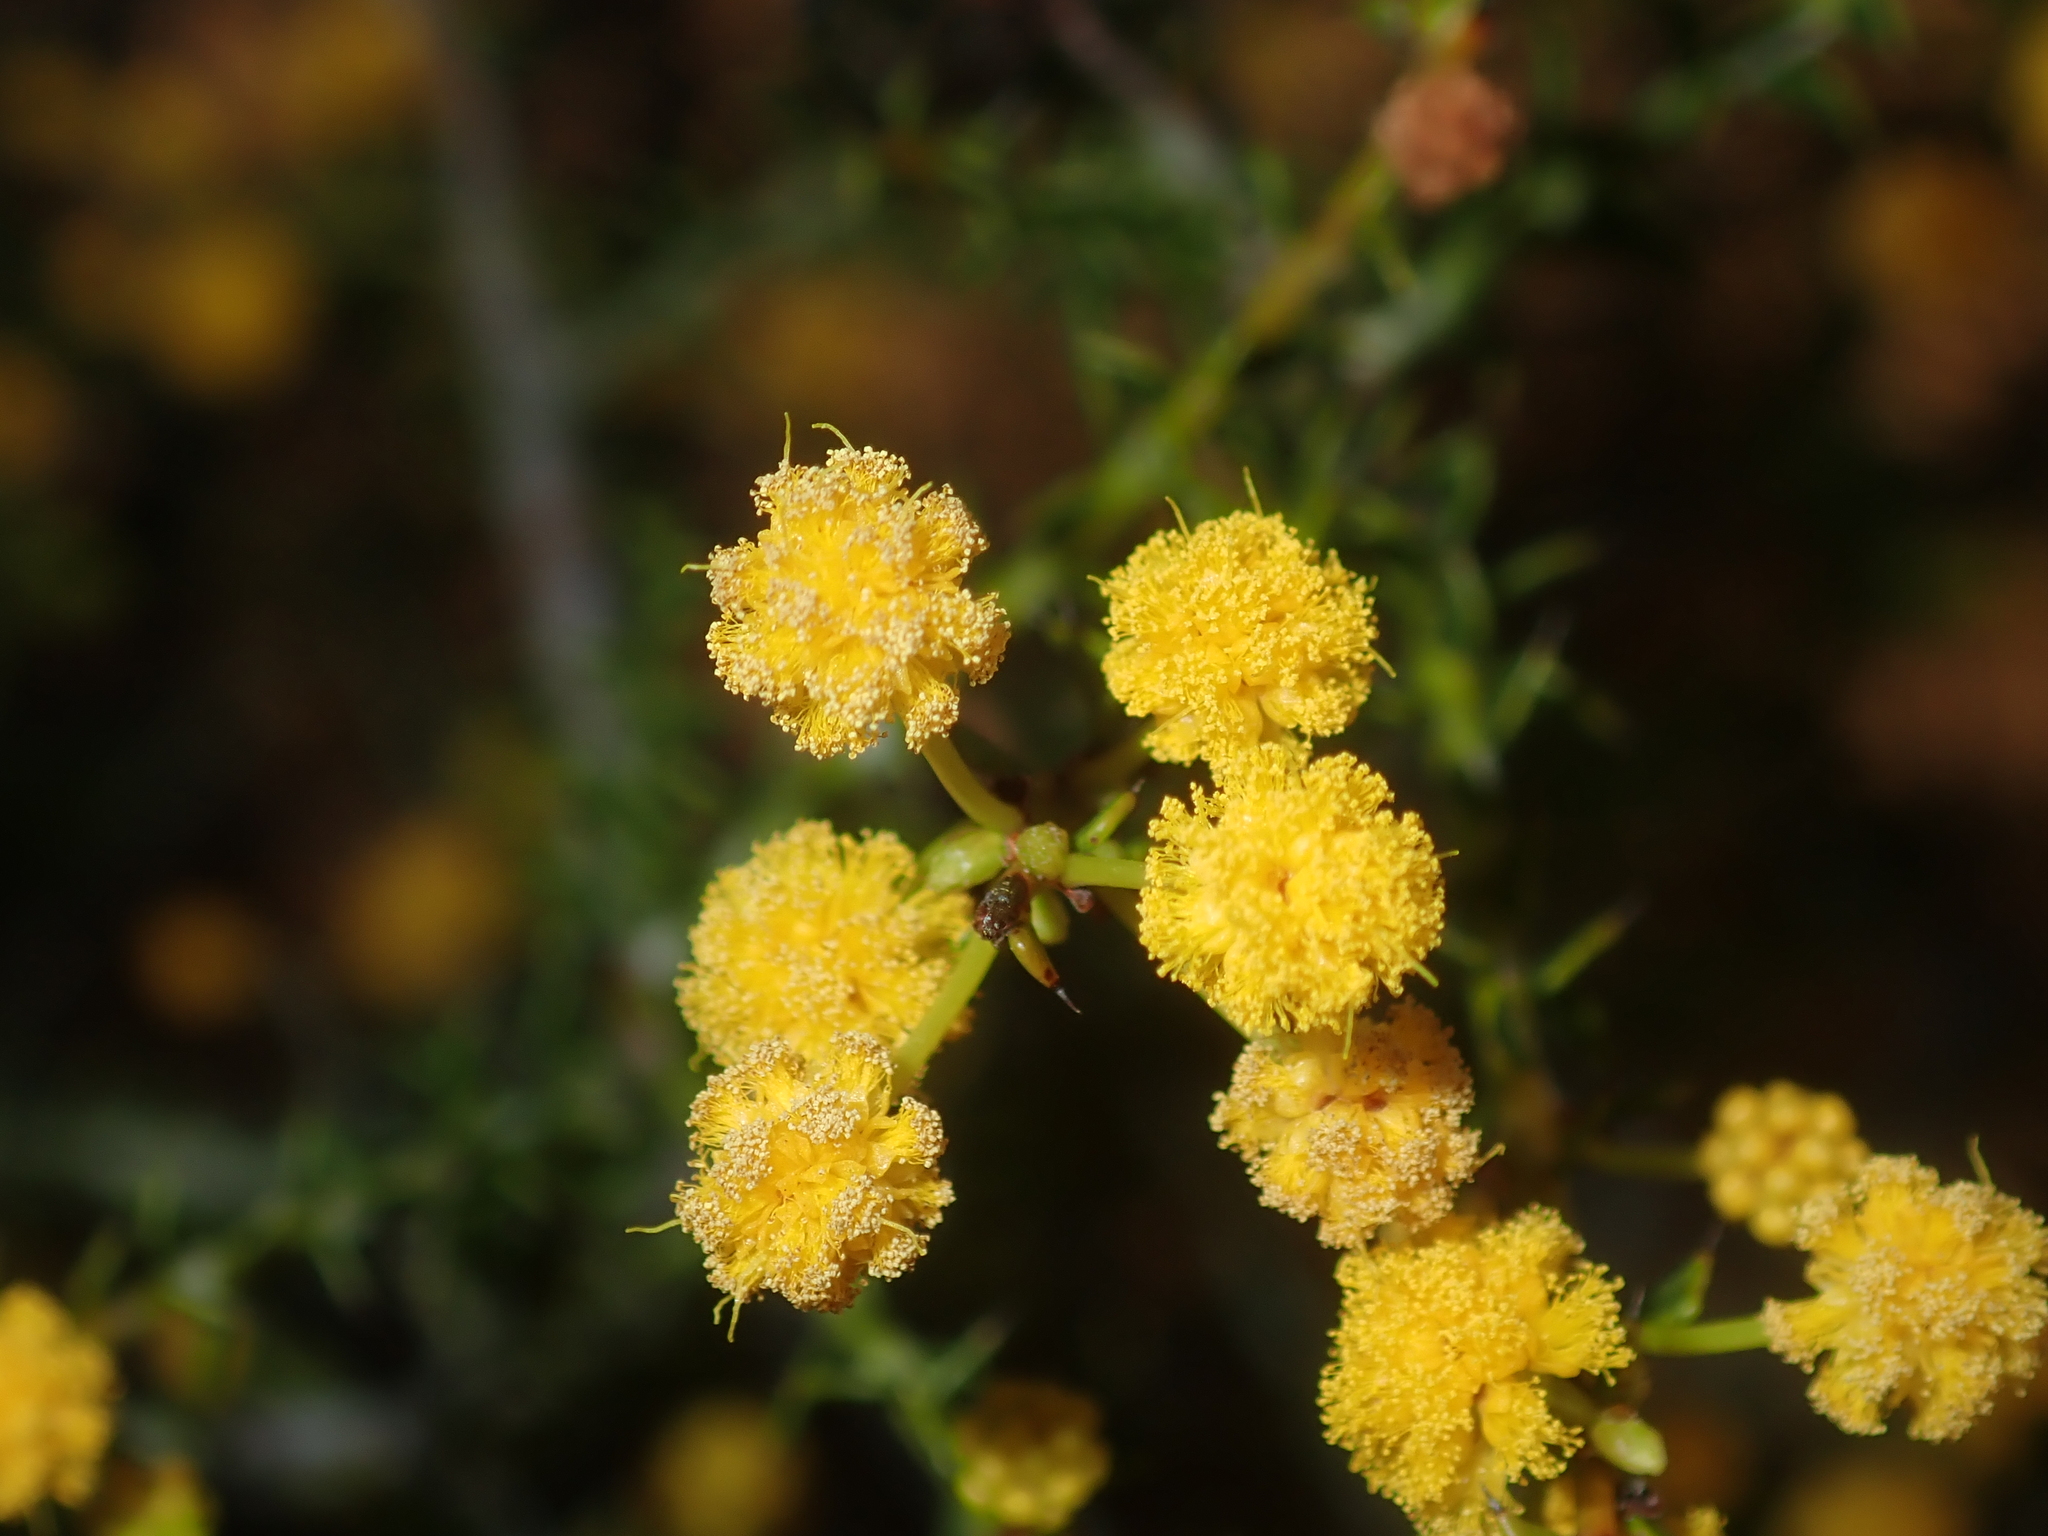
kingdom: Plantae
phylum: Tracheophyta
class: Magnoliopsida
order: Fabales
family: Fabaceae
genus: Acacia
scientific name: Acacia sphenophylla
